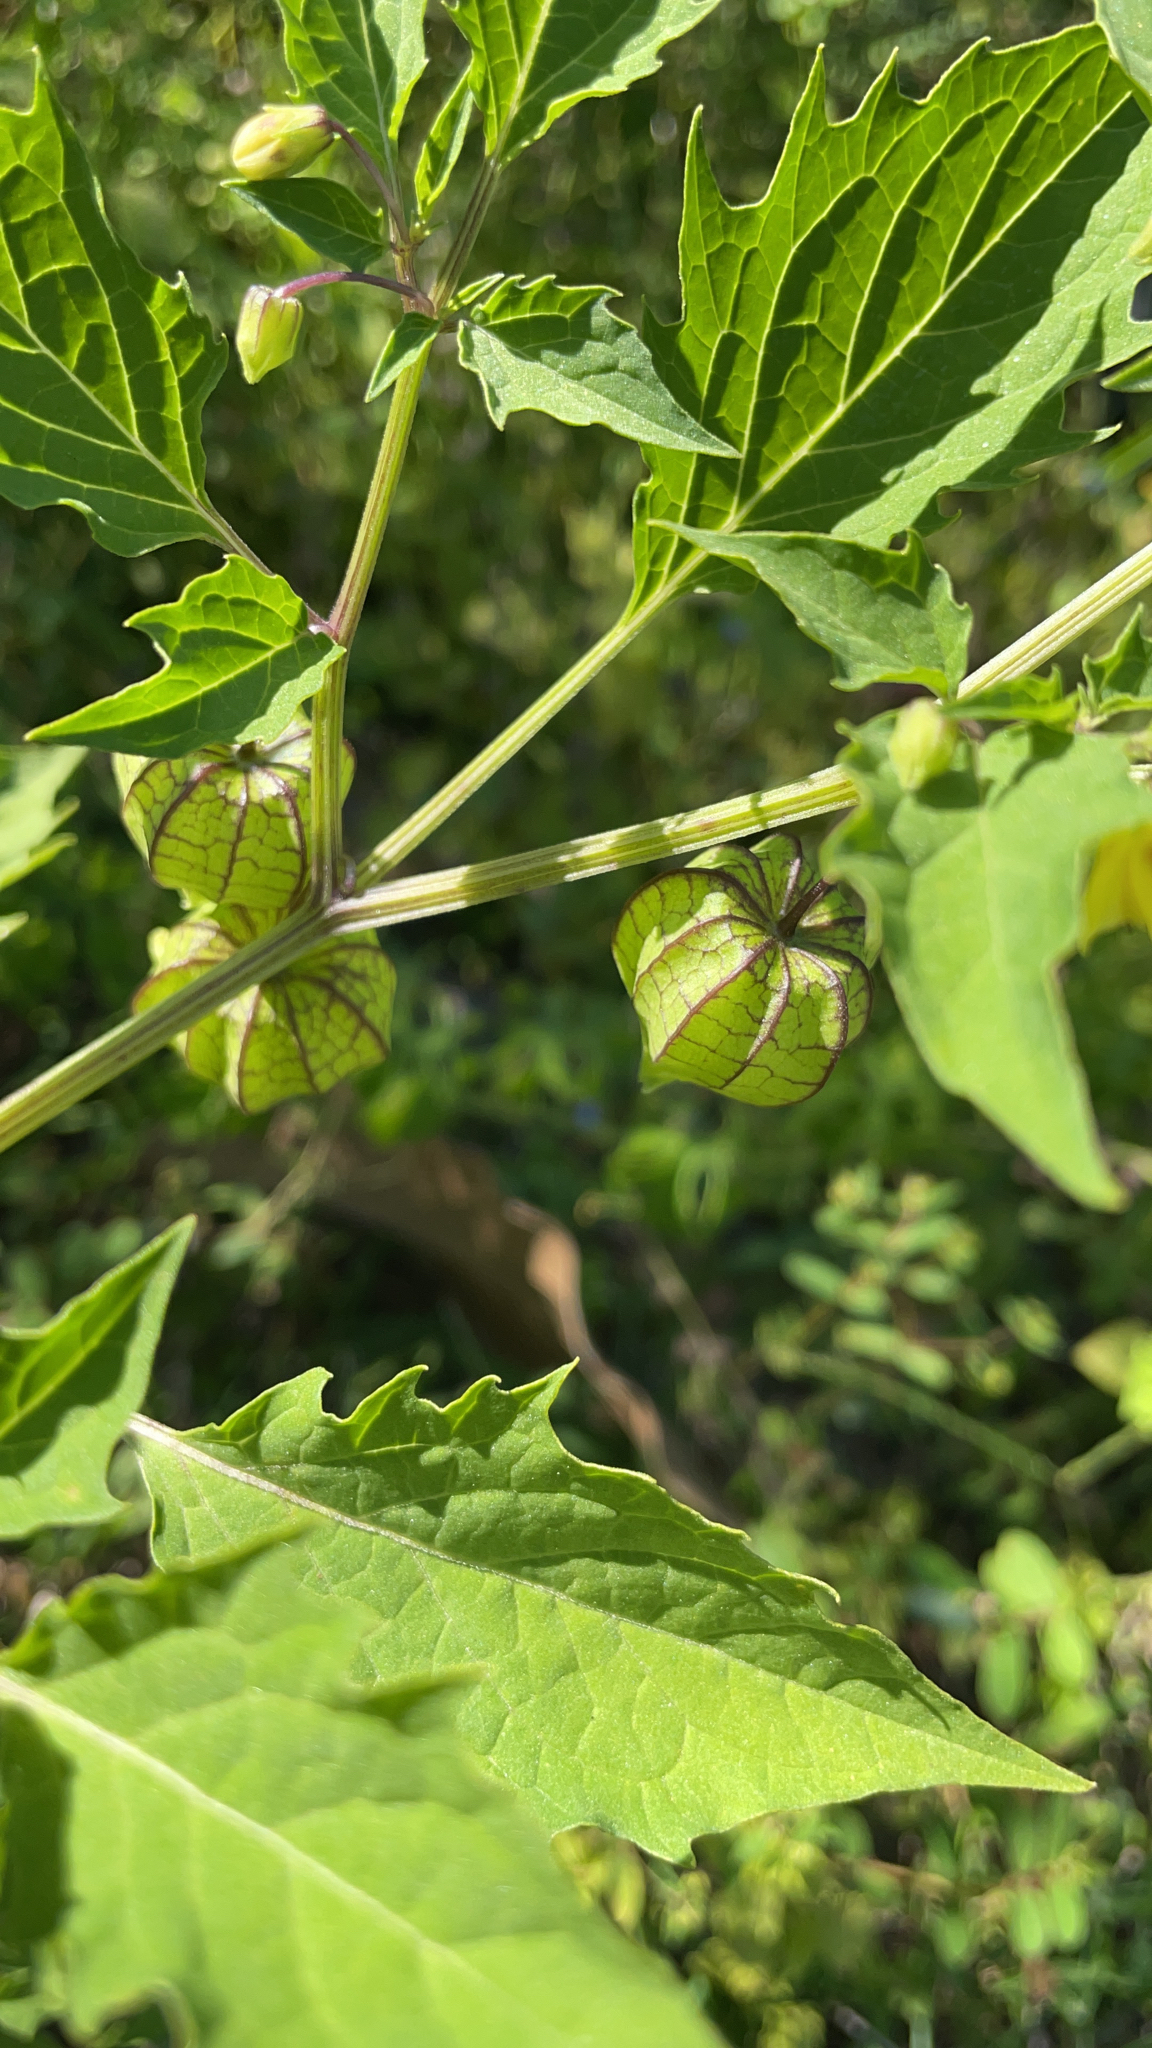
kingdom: Plantae
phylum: Tracheophyta
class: Magnoliopsida
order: Solanales
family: Solanaceae
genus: Physalis
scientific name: Physalis angulata
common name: Angular winter-cherry
